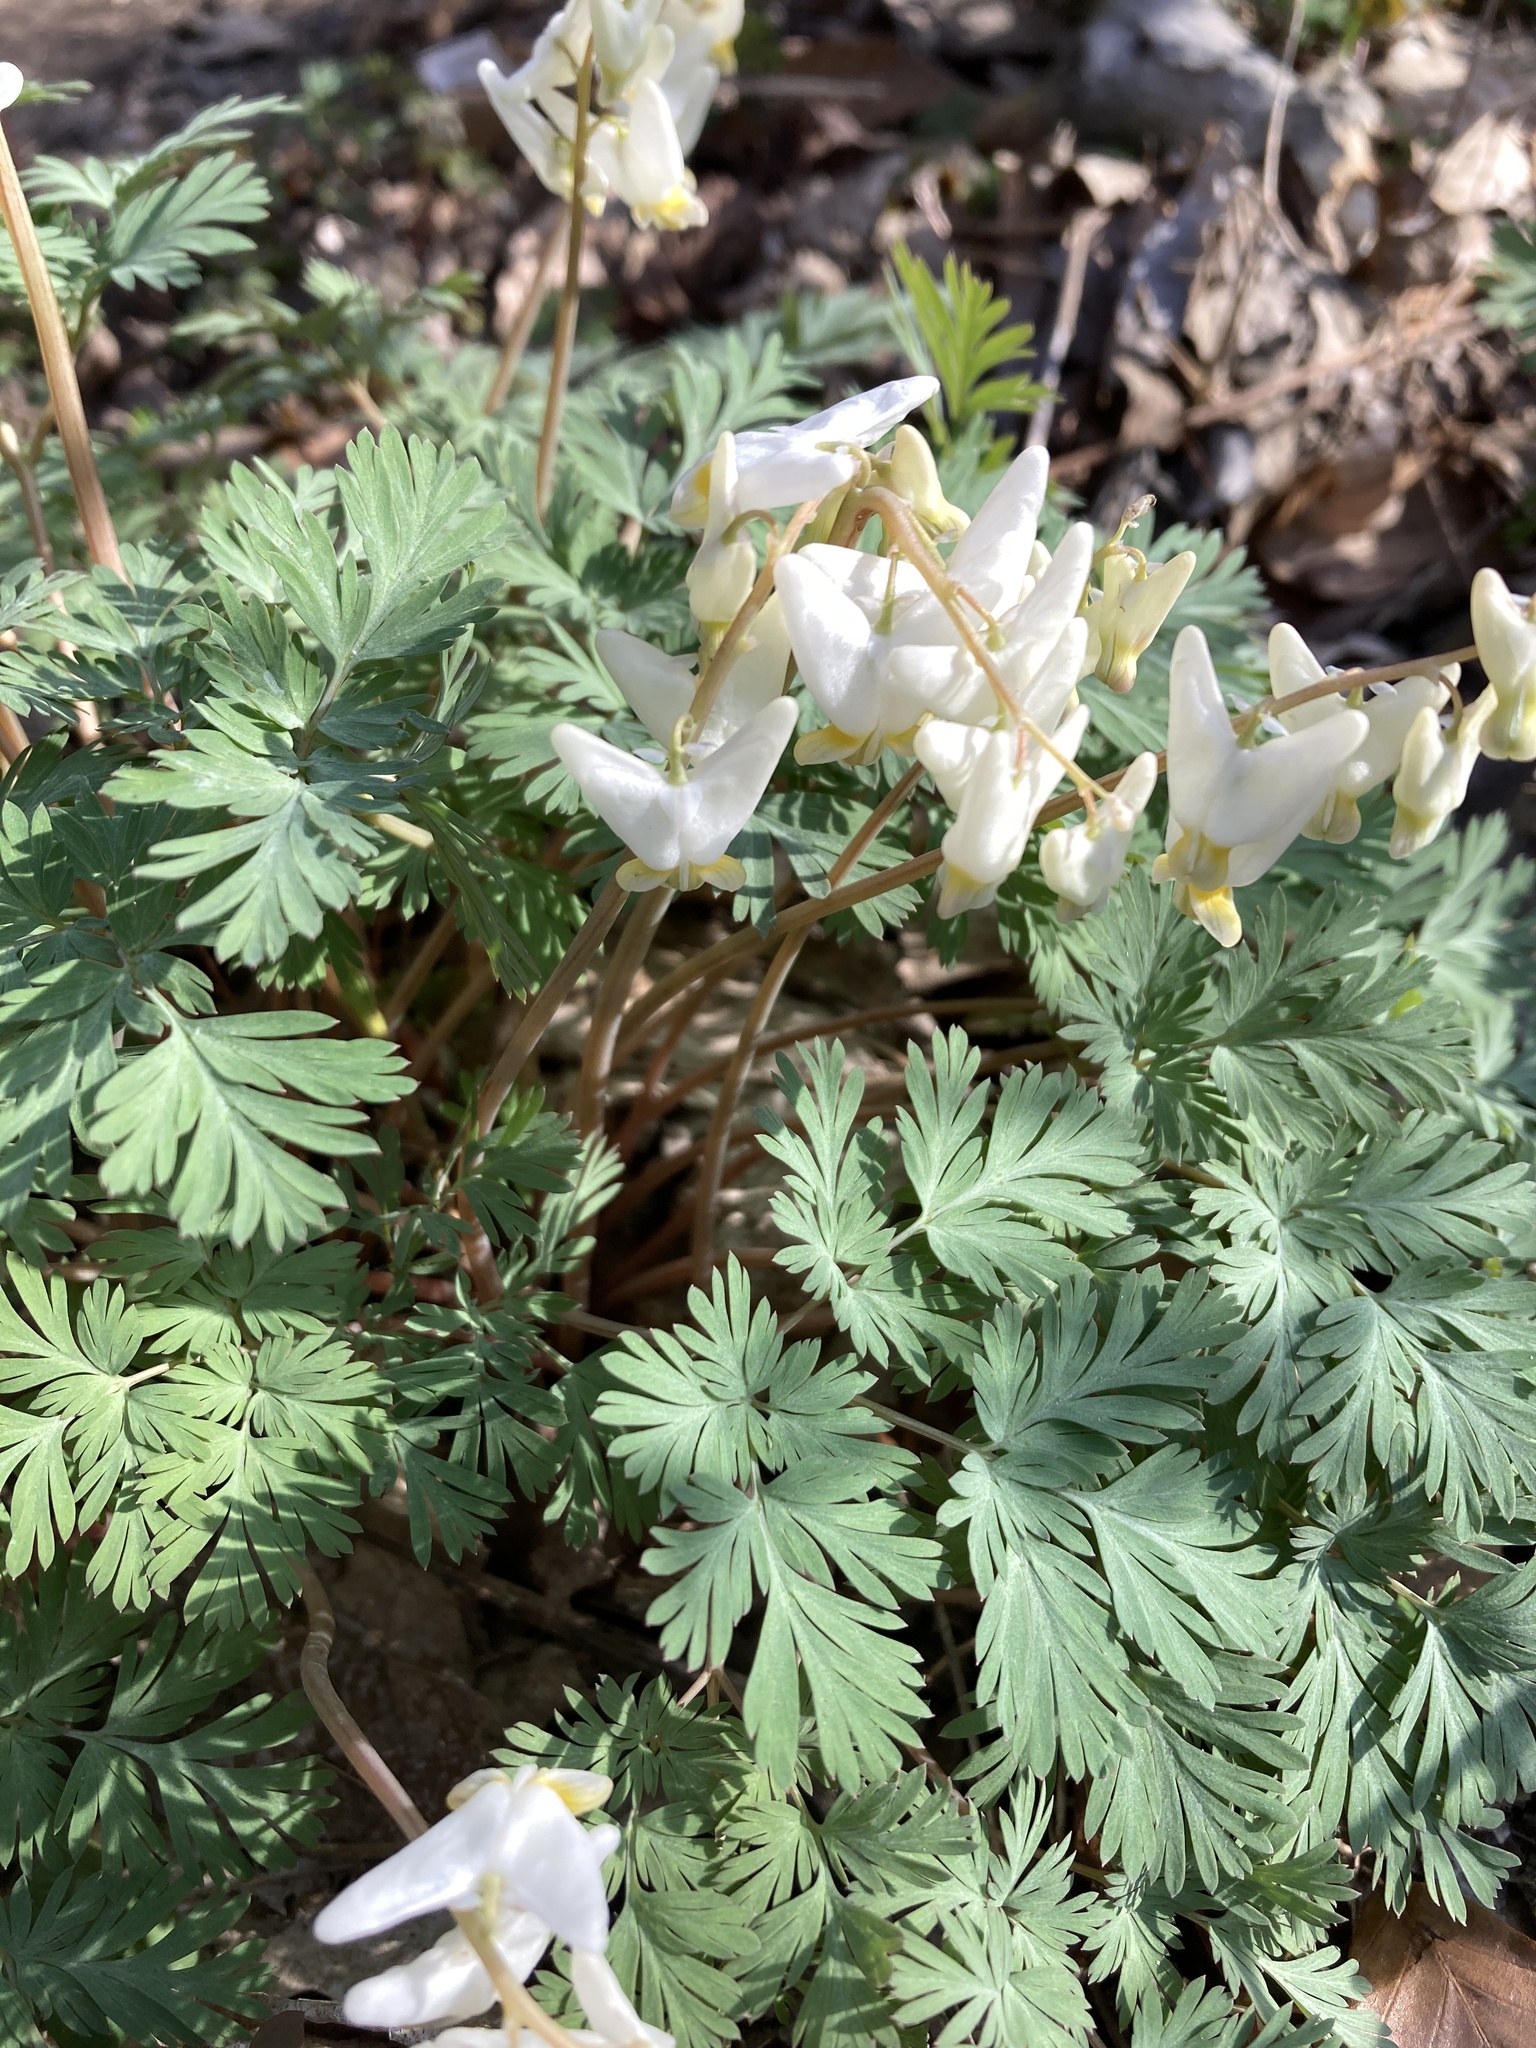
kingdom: Plantae
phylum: Tracheophyta
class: Magnoliopsida
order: Ranunculales
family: Papaveraceae
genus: Dicentra
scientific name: Dicentra cucullaria
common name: Dutchman's breeches
